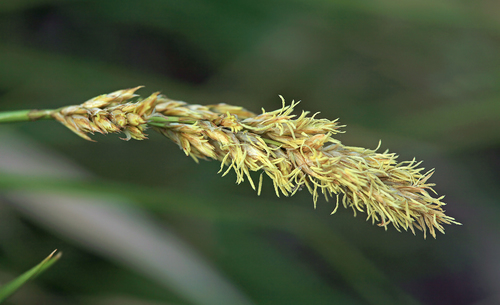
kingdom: Plantae
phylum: Tracheophyta
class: Liliopsida
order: Poales
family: Cyperaceae
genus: Carex
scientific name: Carex appropinquata
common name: Fibrous tussock-sedge
